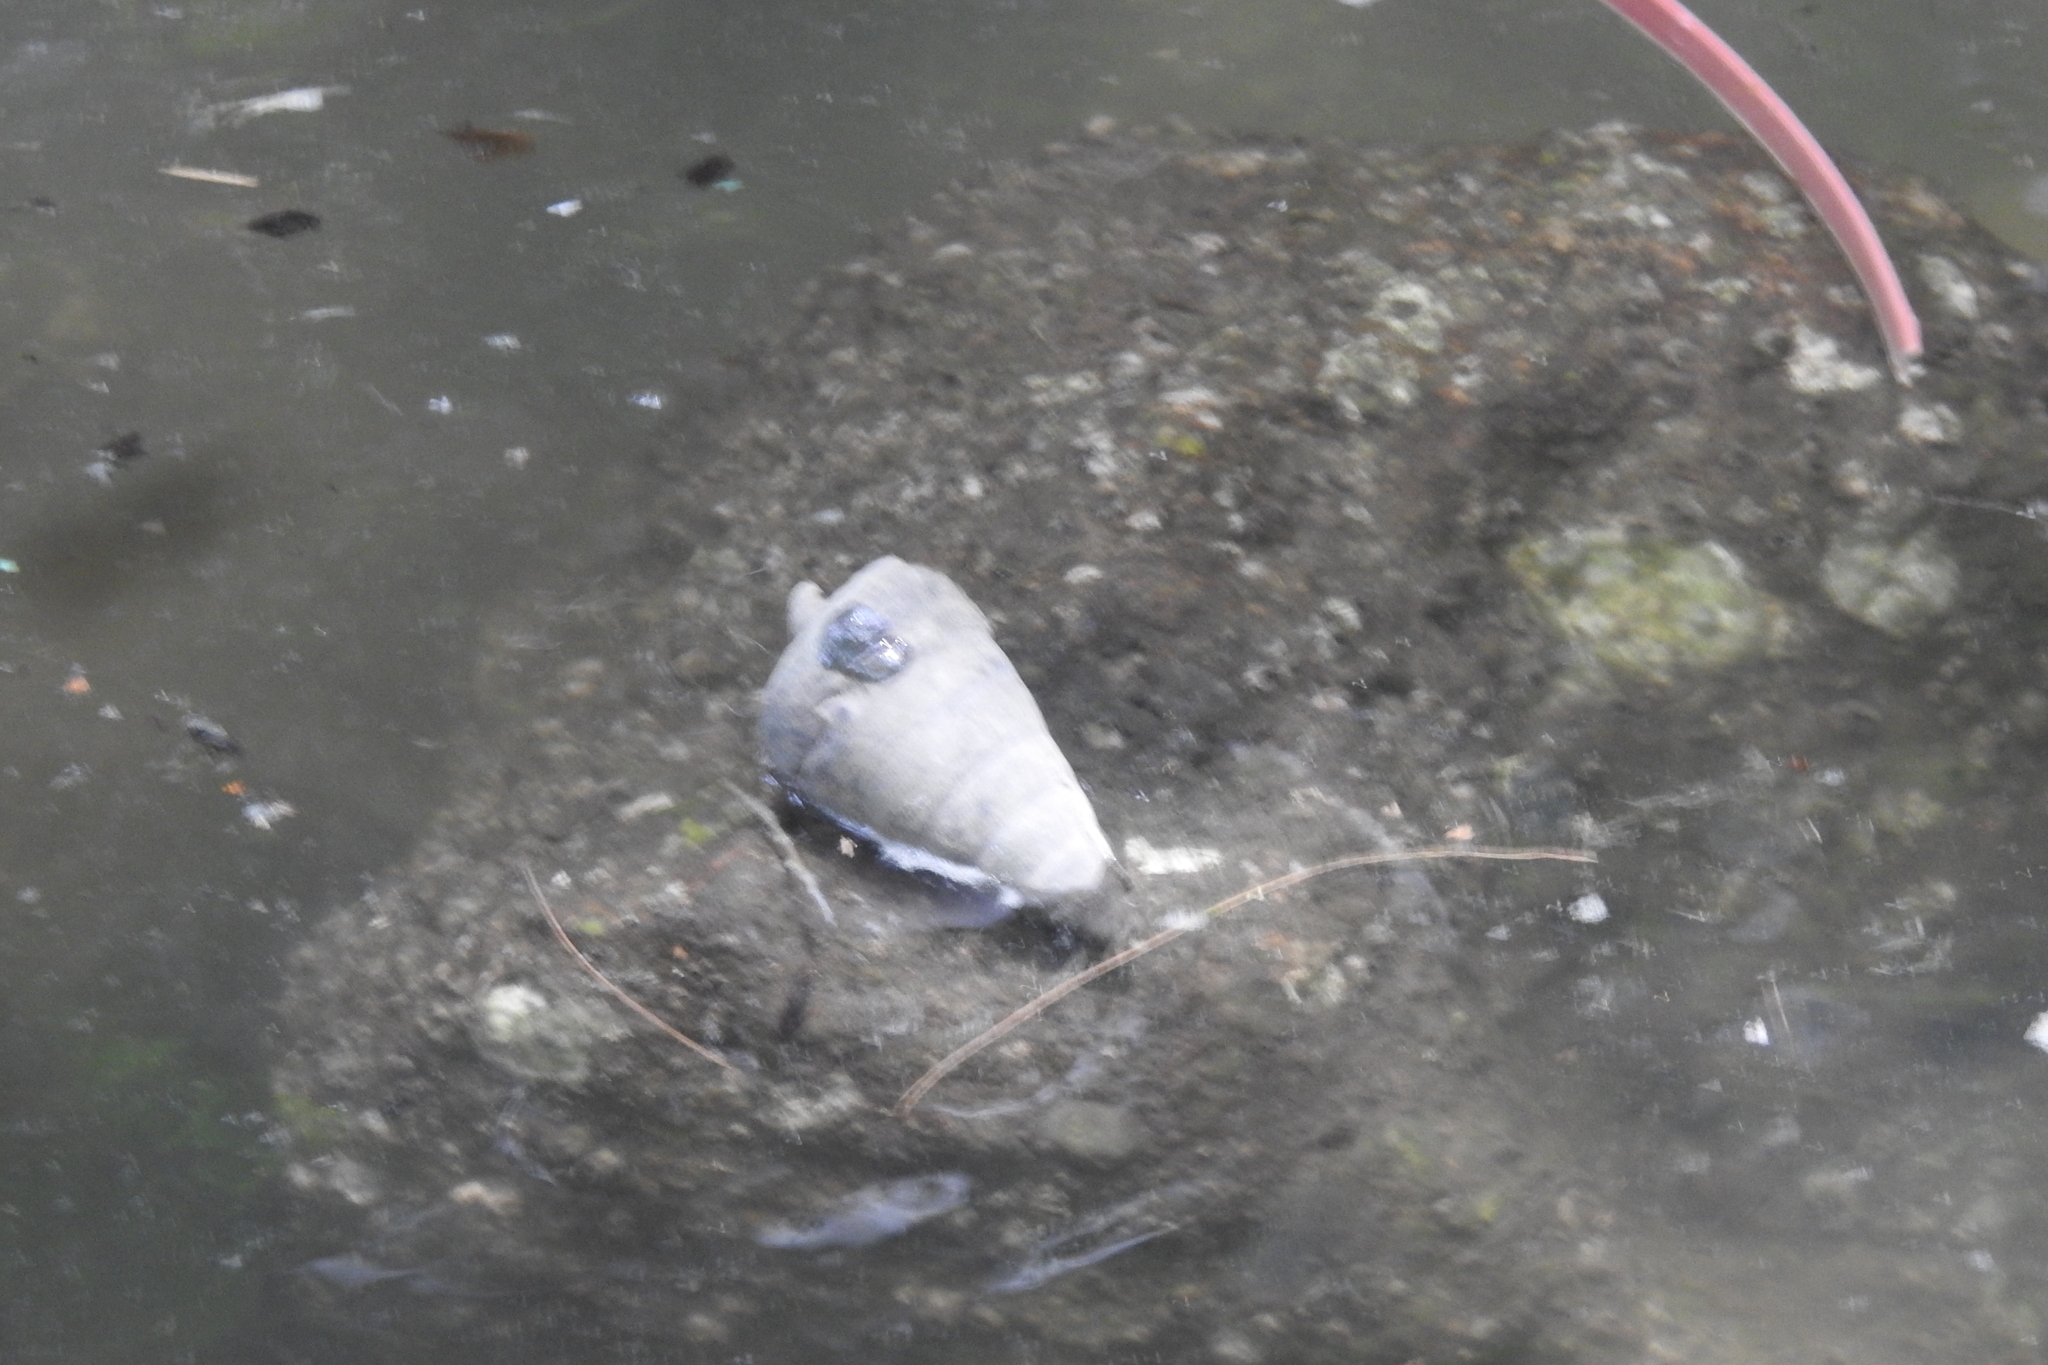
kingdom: Animalia
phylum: Mollusca
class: Gastropoda
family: Potamididae
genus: Telescopium
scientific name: Telescopium telescopium
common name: Telescope creeper
